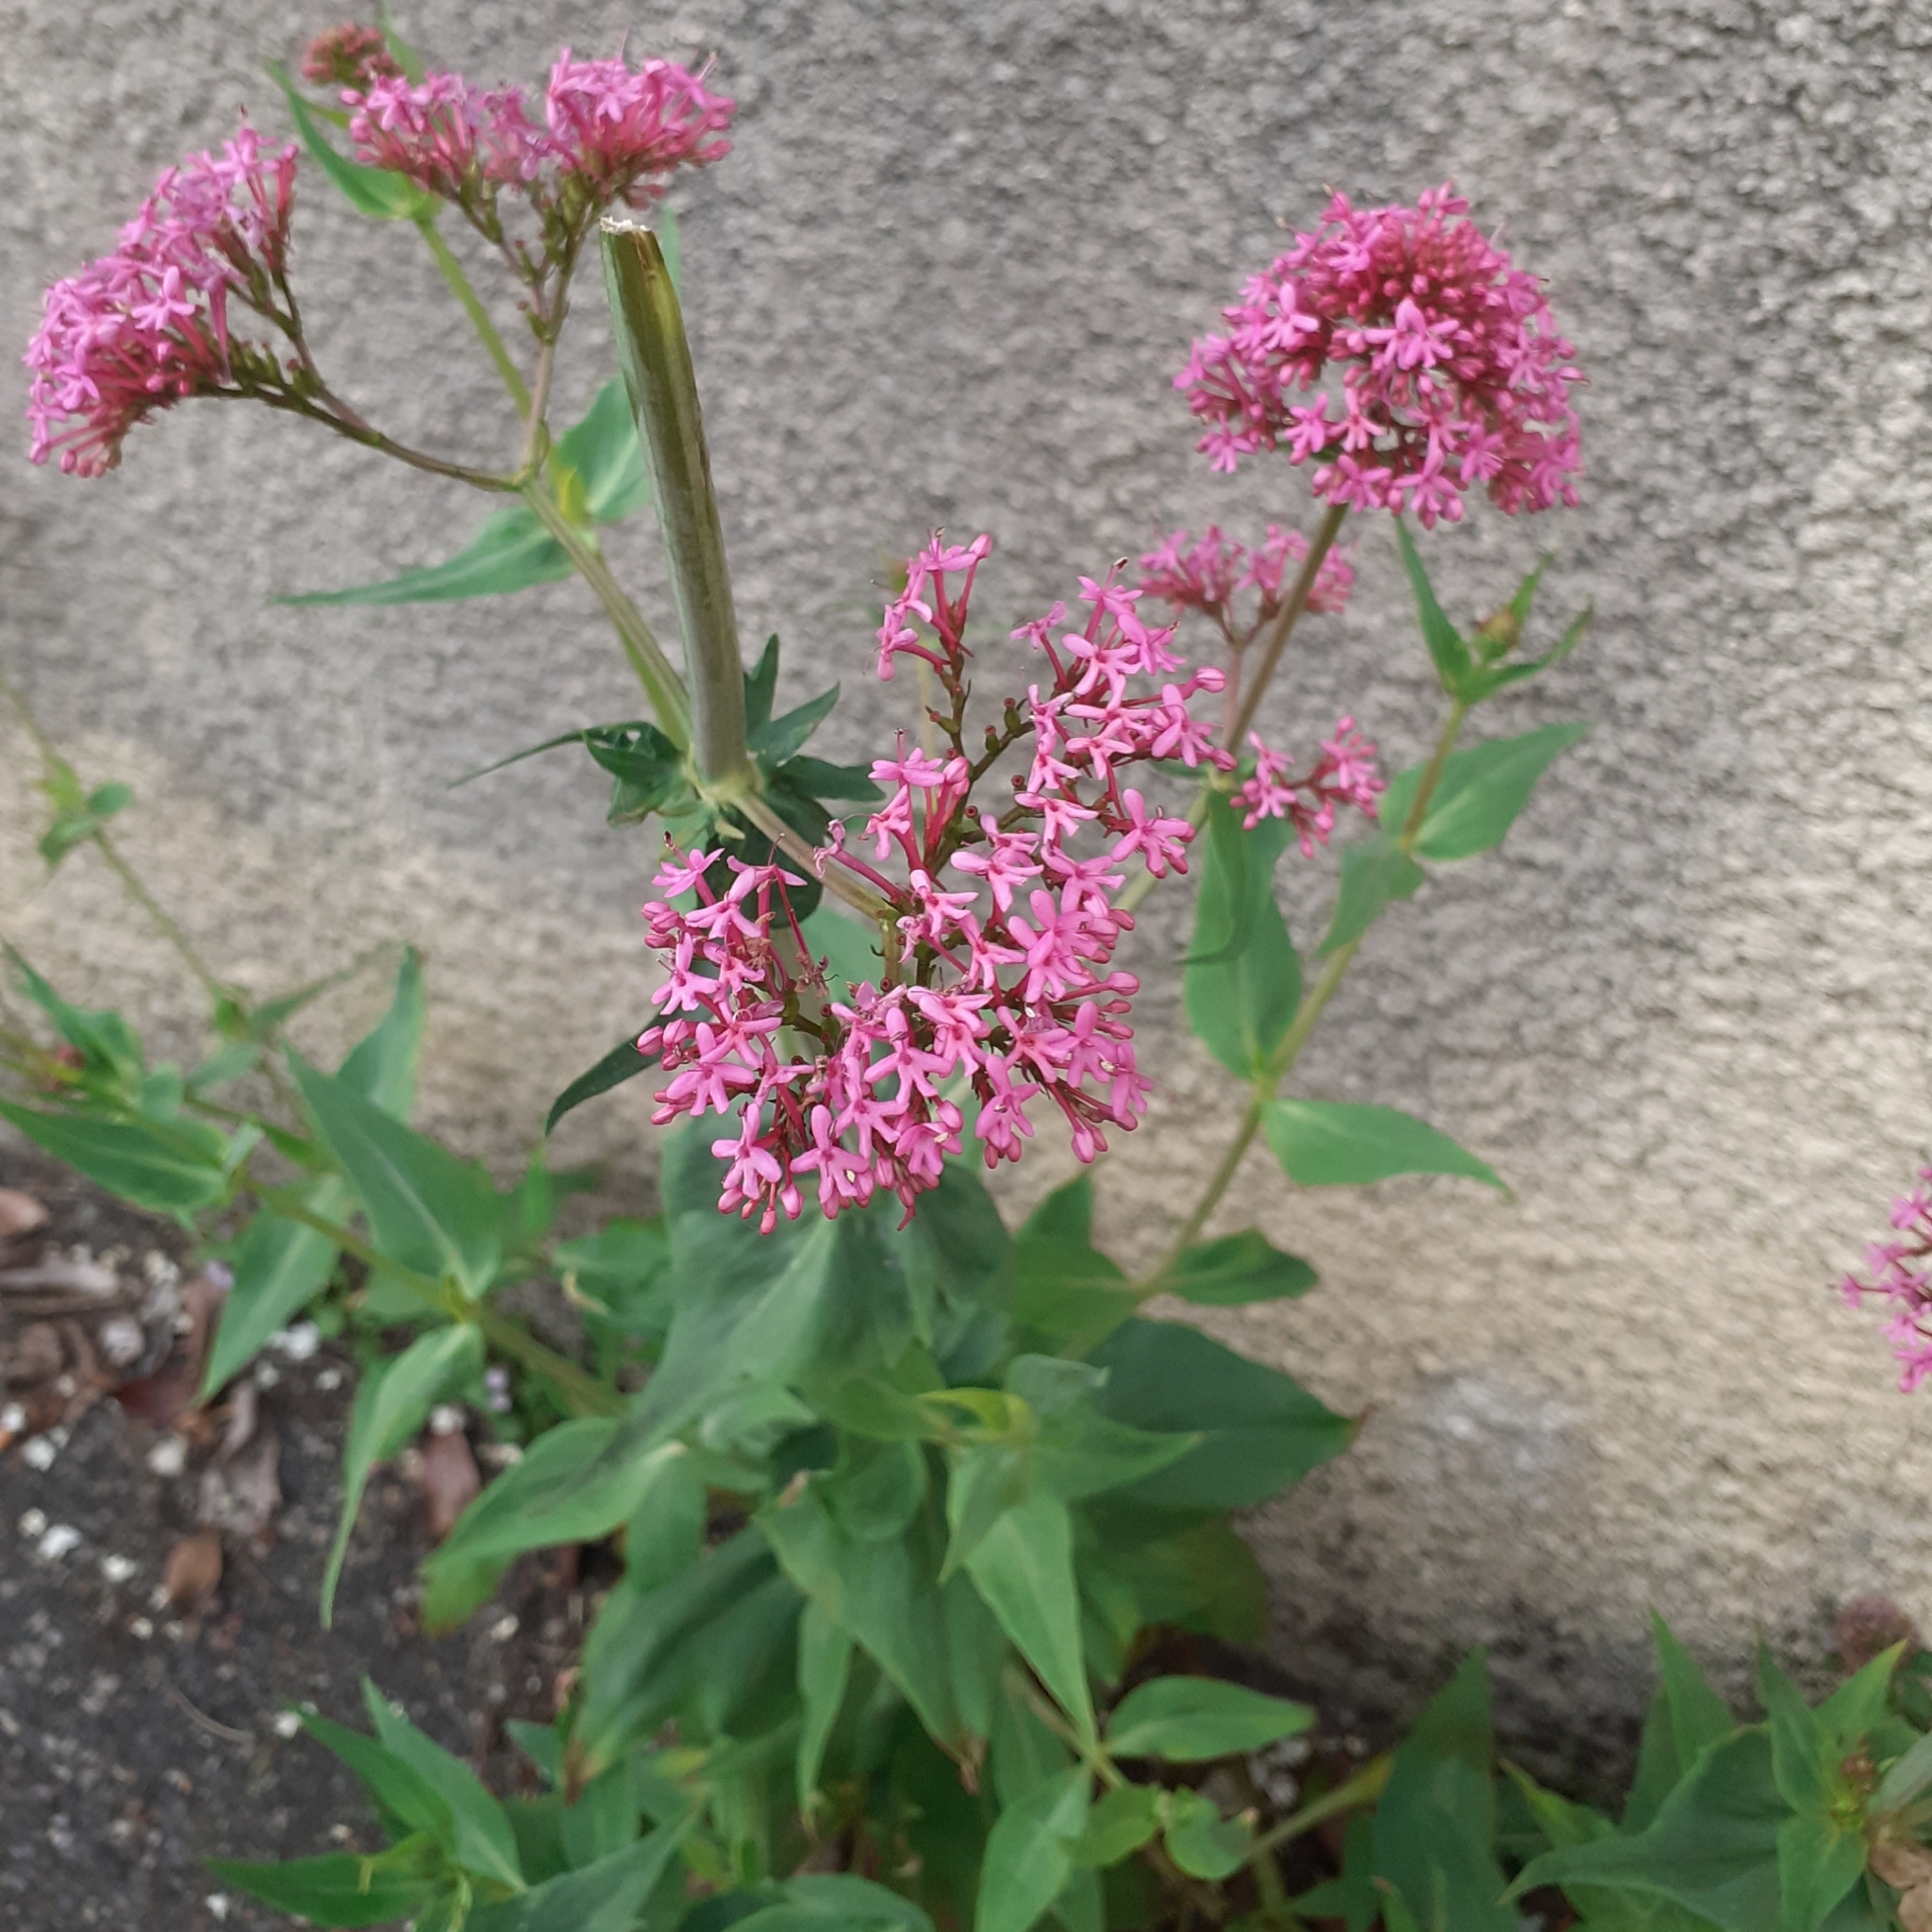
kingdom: Plantae
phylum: Tracheophyta
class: Magnoliopsida
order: Dipsacales
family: Caprifoliaceae
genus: Centranthus
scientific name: Centranthus ruber
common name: Red valerian
